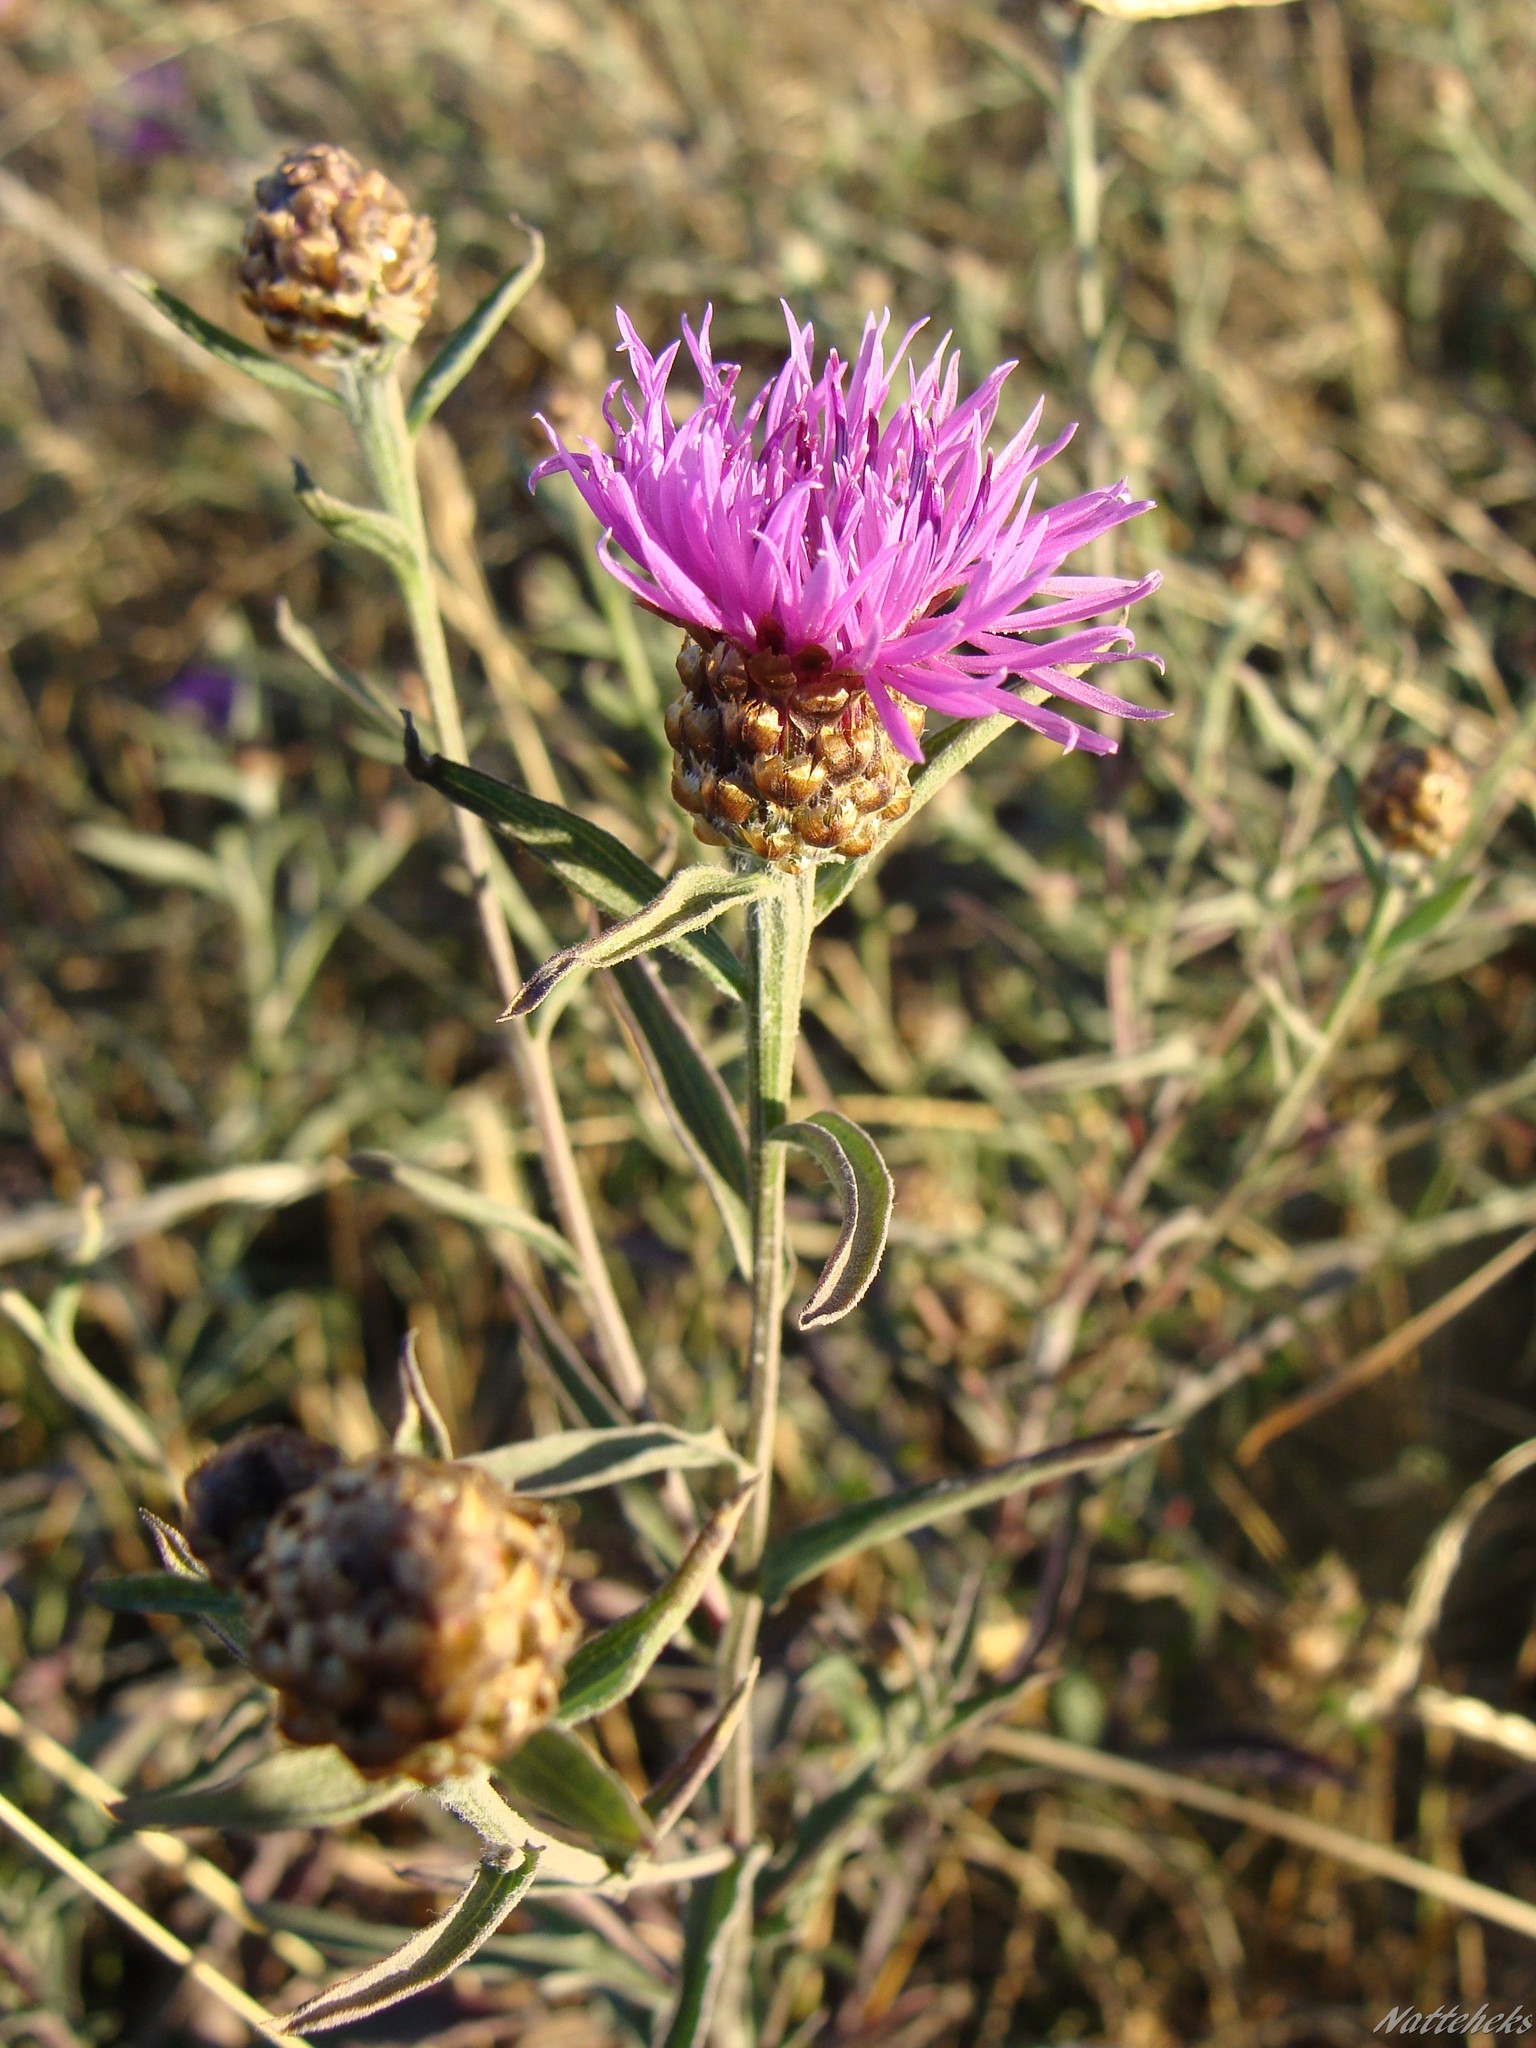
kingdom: Plantae
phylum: Tracheophyta
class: Magnoliopsida
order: Asterales
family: Asteraceae
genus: Centaurea
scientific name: Centaurea jacea
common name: Brown knapweed
